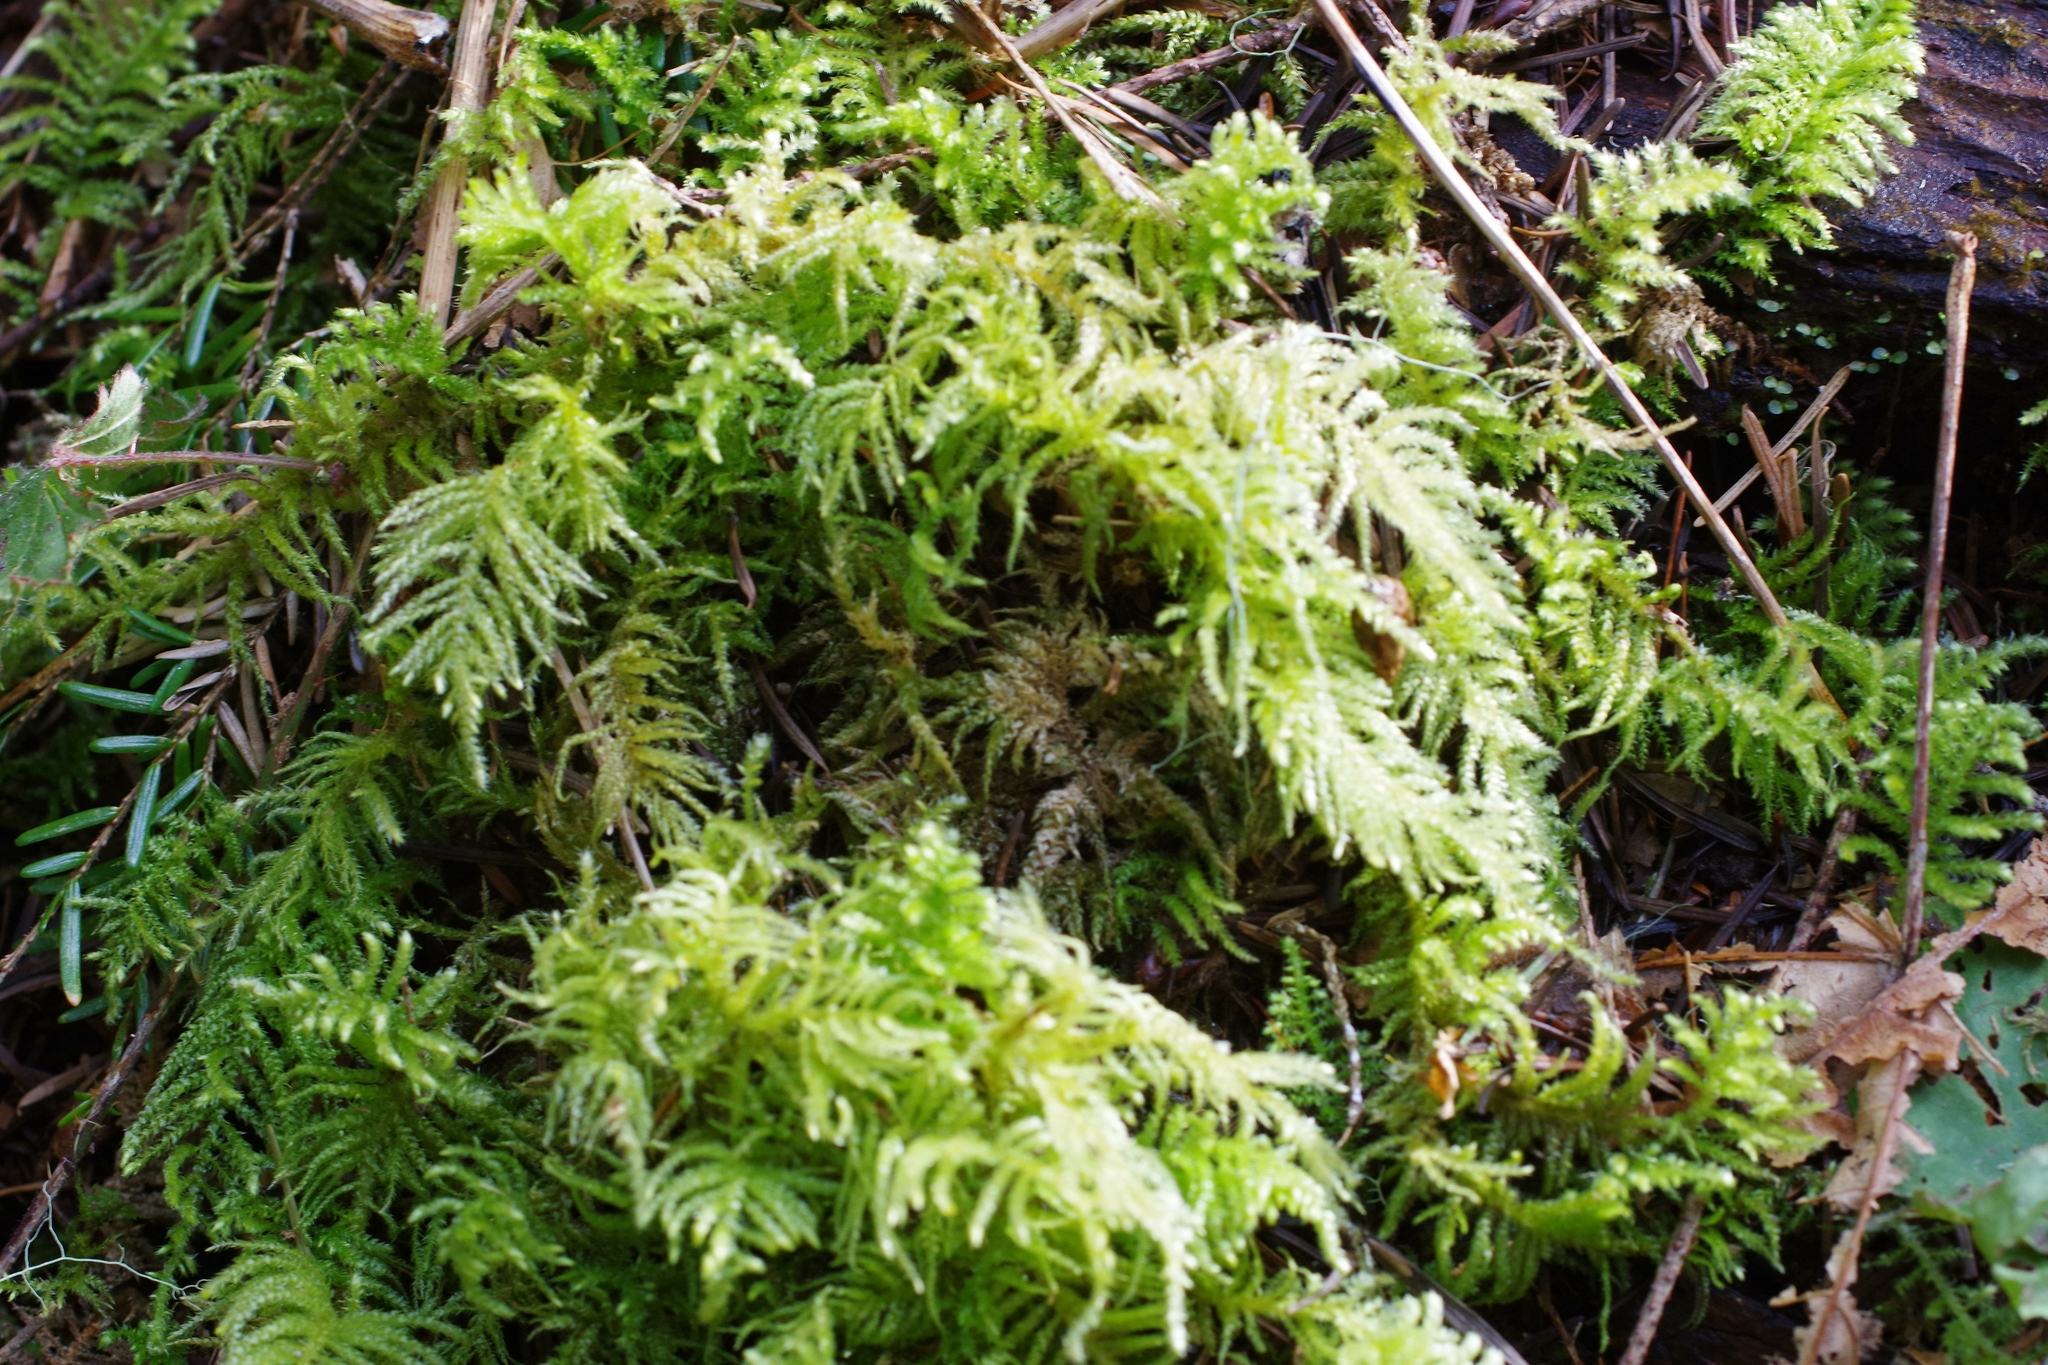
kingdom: Plantae
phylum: Bryophyta
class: Bryopsida
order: Hypnales
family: Brachytheciaceae
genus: Kindbergia
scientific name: Kindbergia oregana
